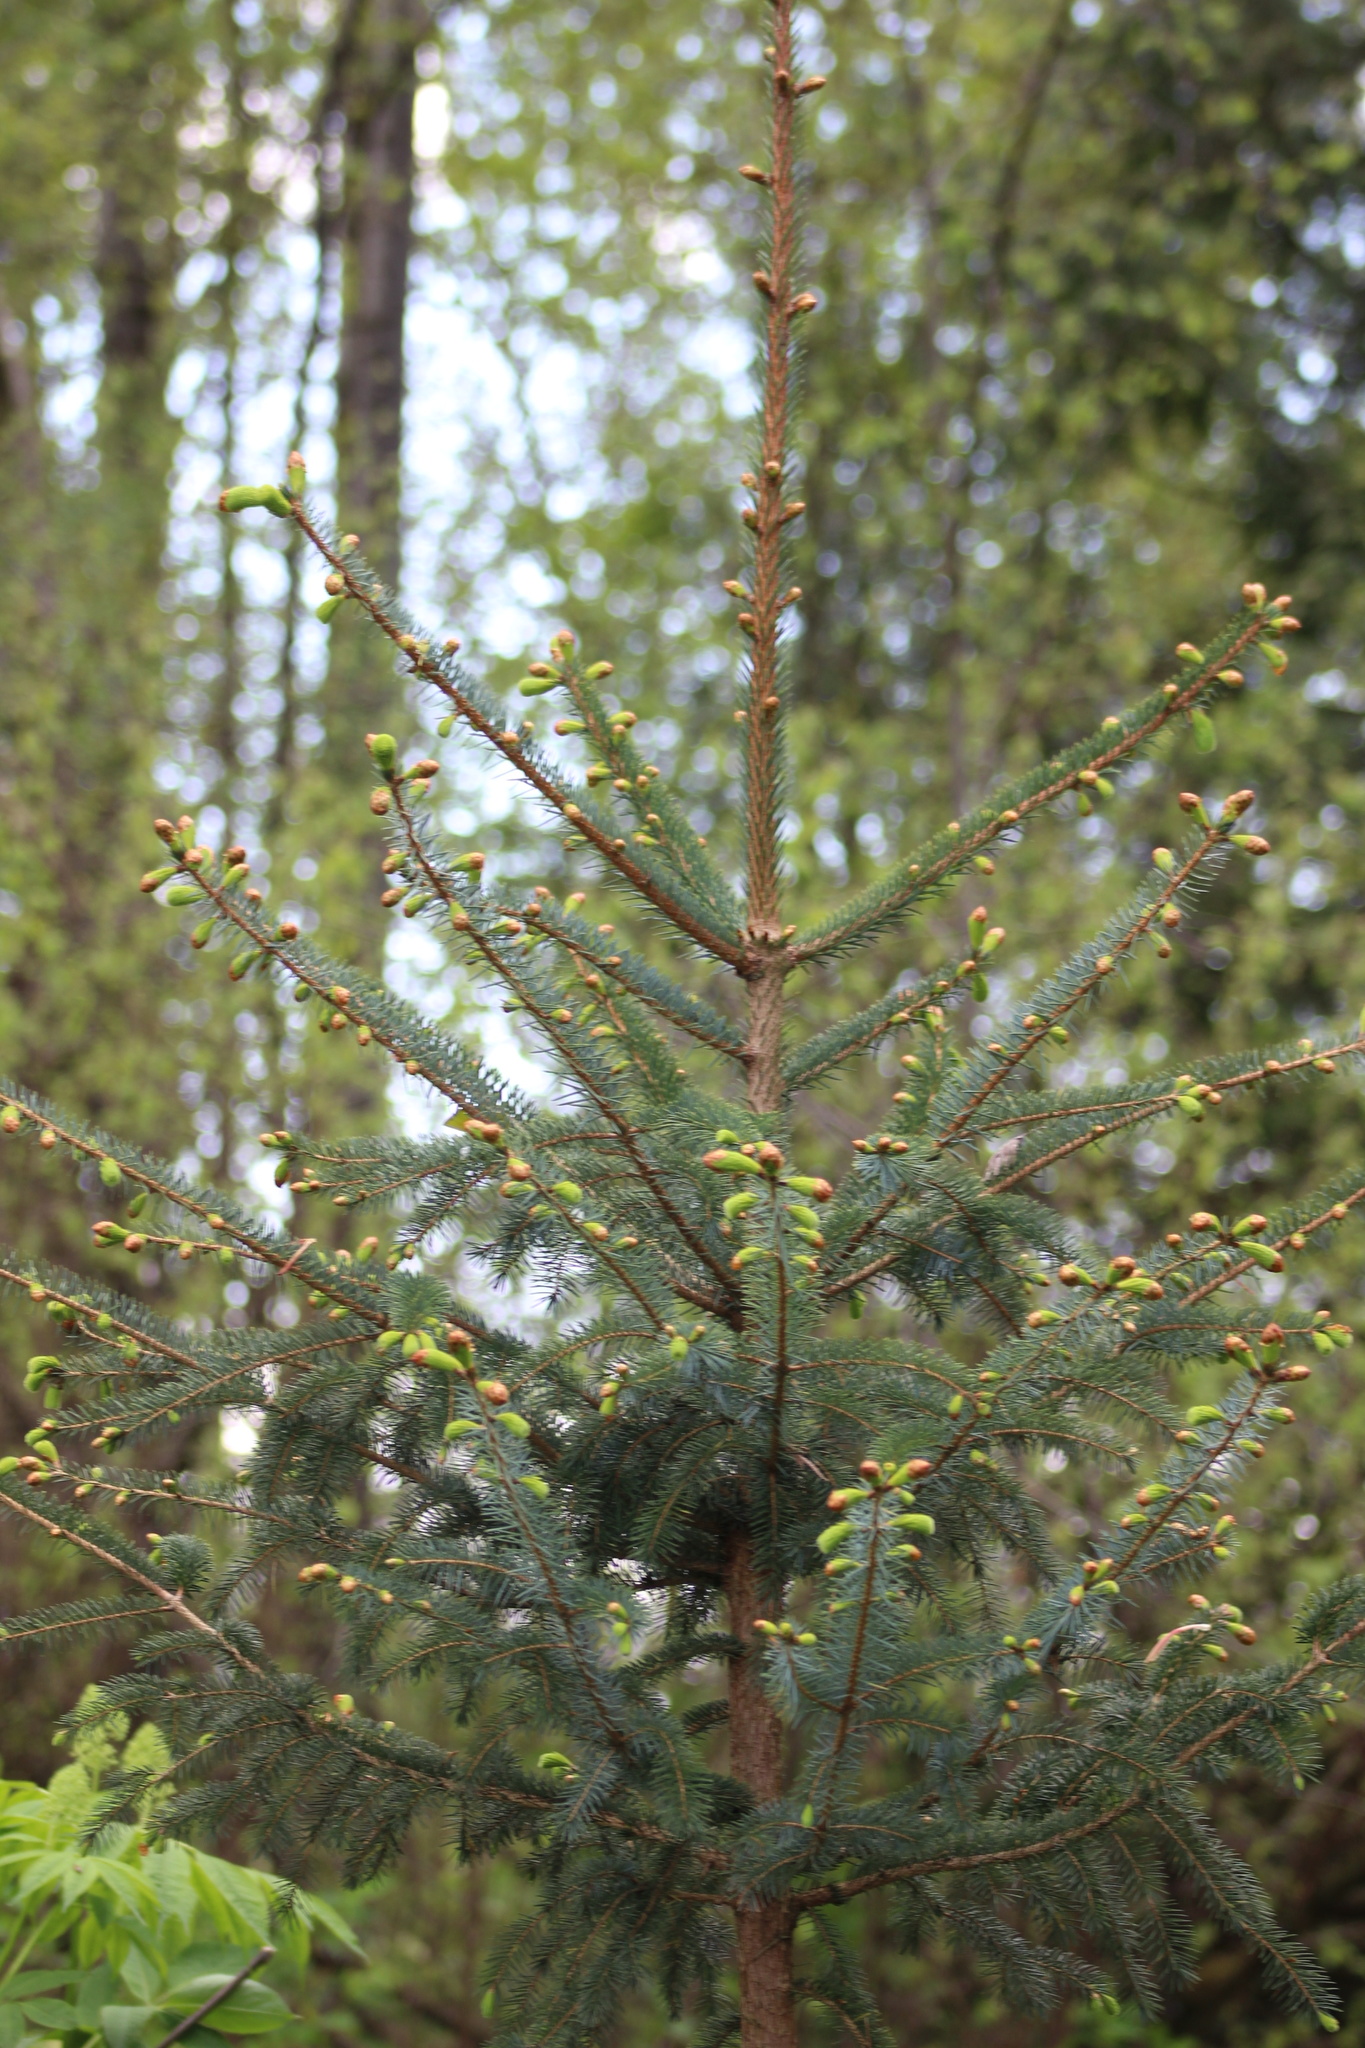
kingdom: Plantae
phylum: Tracheophyta
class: Pinopsida
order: Pinales
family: Pinaceae
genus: Picea
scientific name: Picea sitchensis
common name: Sitka spruce
